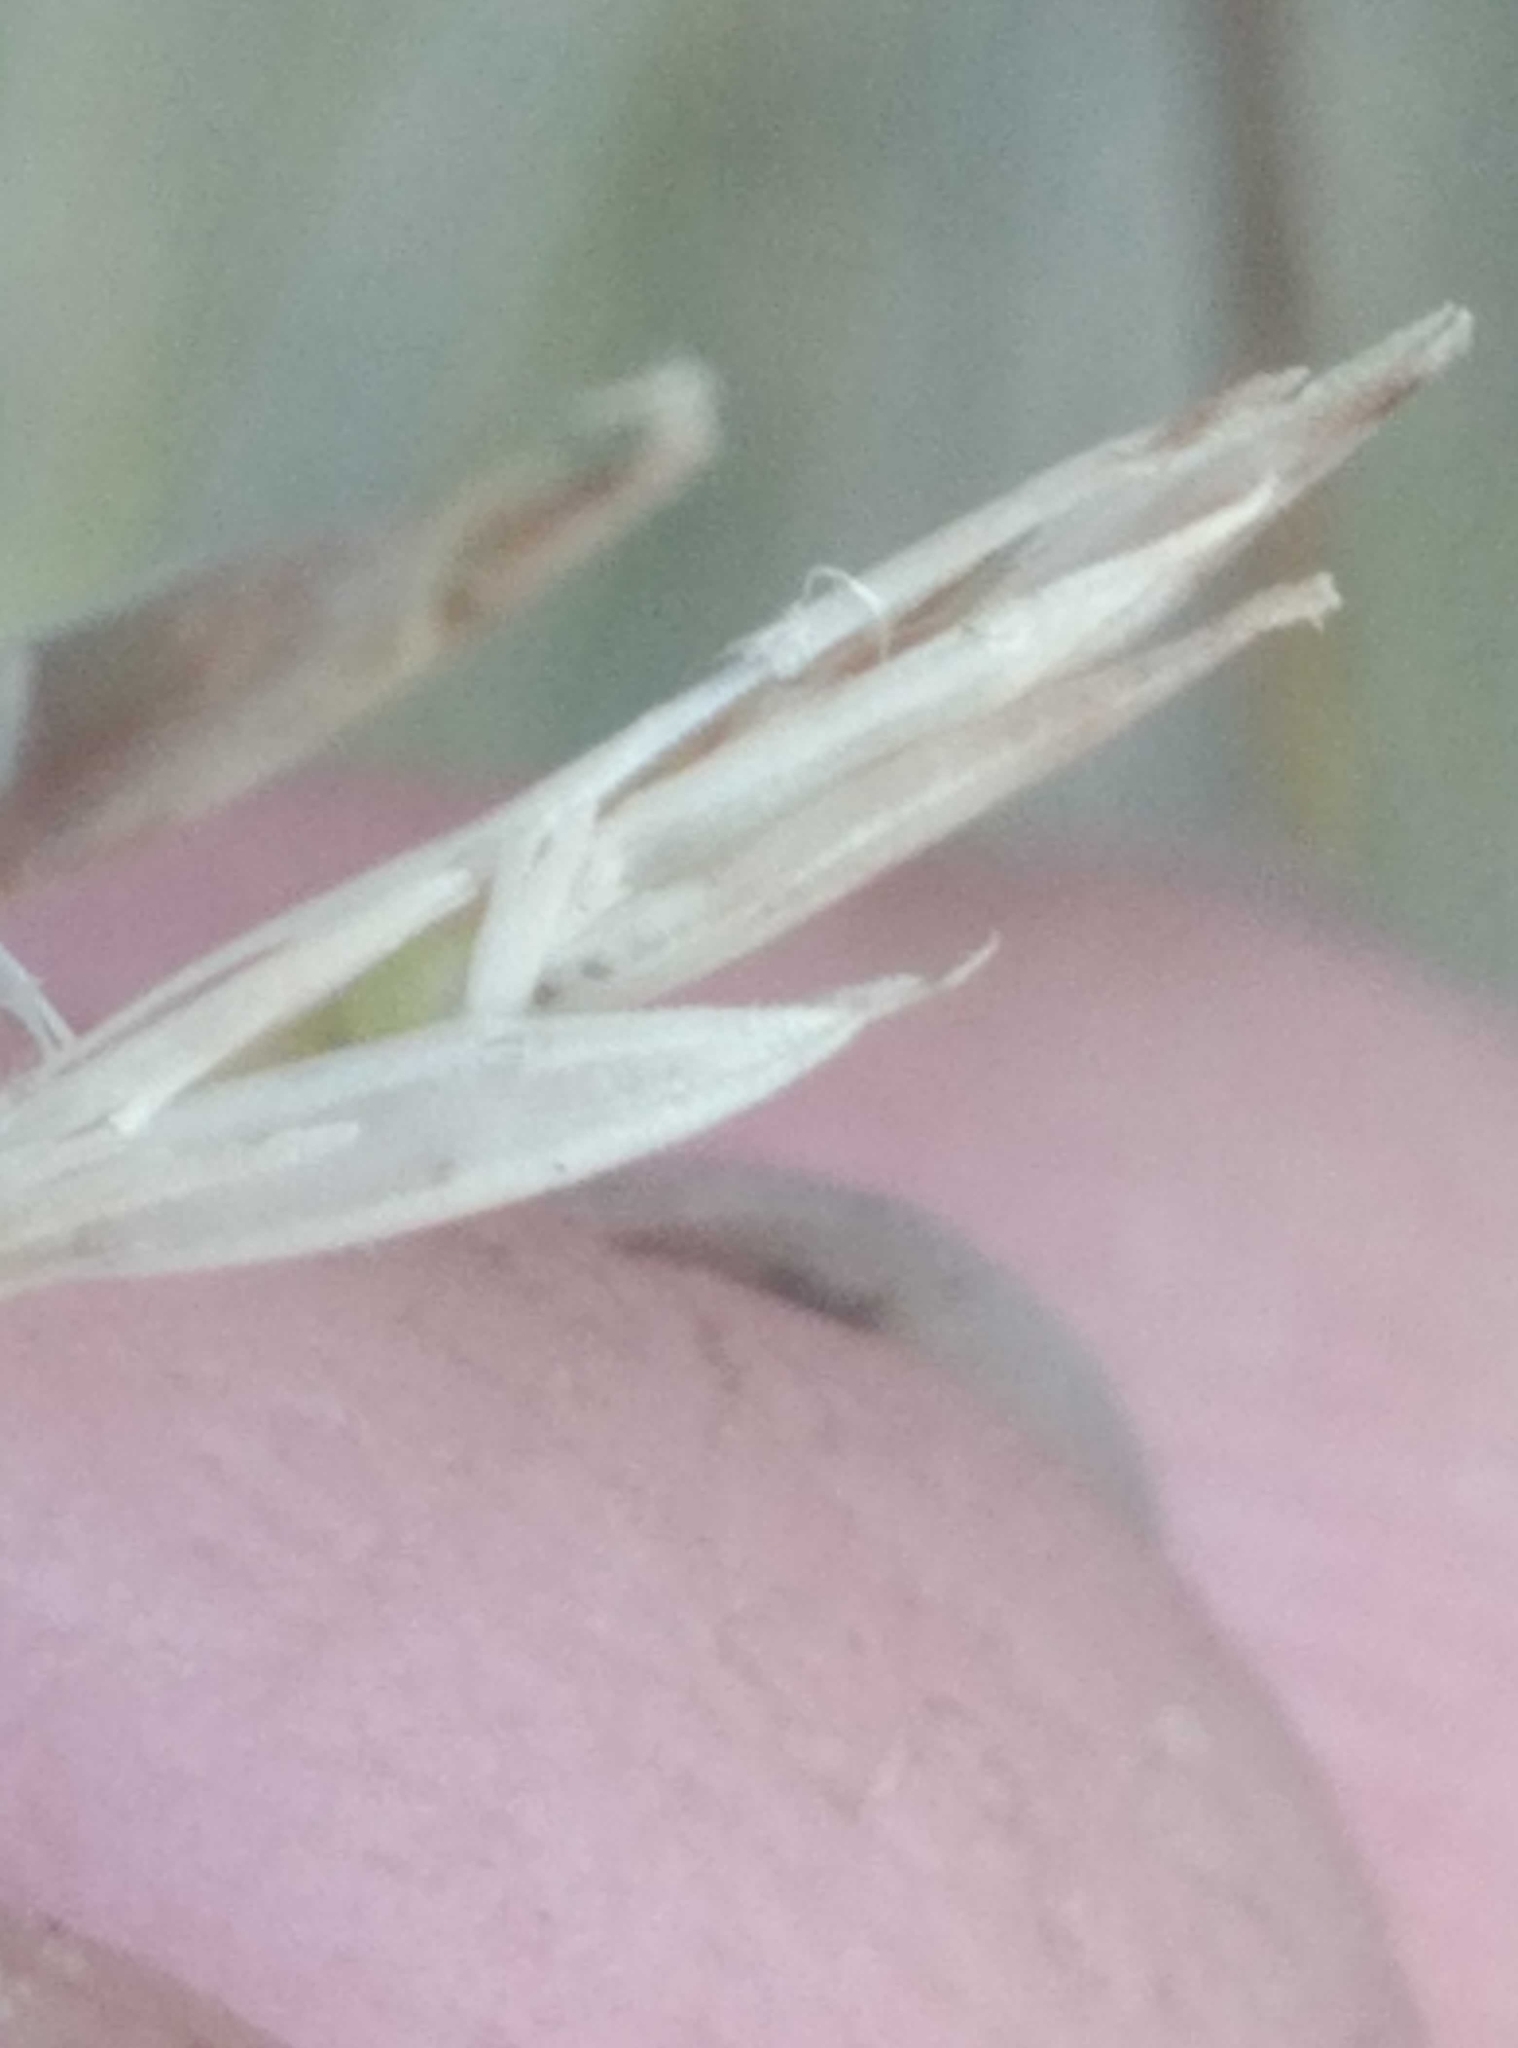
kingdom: Plantae
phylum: Tracheophyta
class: Liliopsida
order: Poales
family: Poaceae
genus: Festuca
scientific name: Festuca actae
